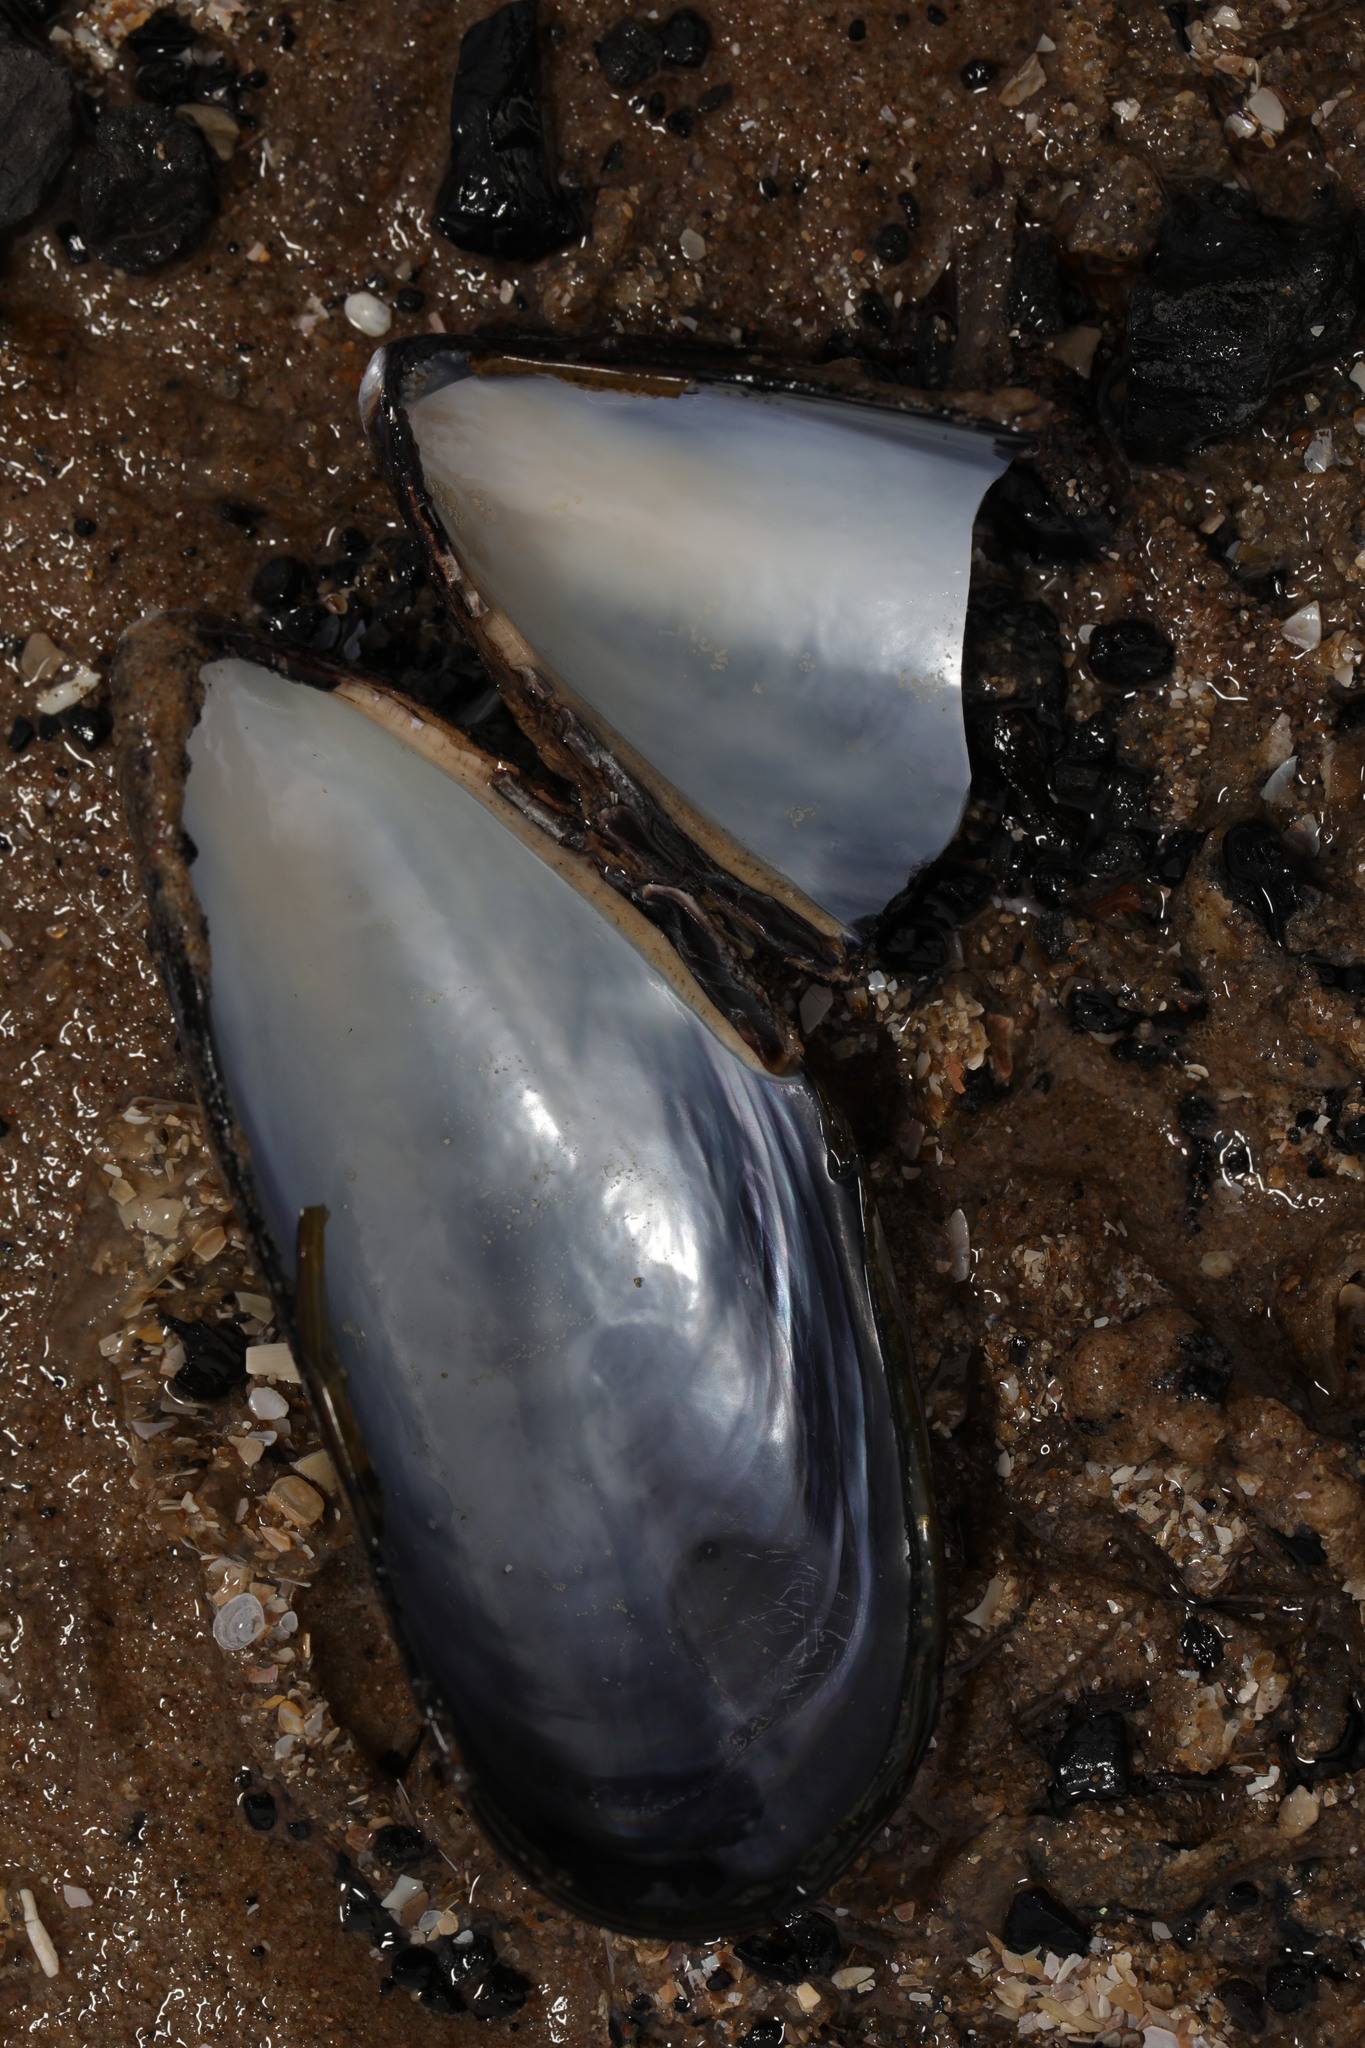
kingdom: Animalia
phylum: Mollusca
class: Bivalvia
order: Mytilida
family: Mytilidae
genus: Mytilus
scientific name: Mytilus edulis
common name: Blue mussel
